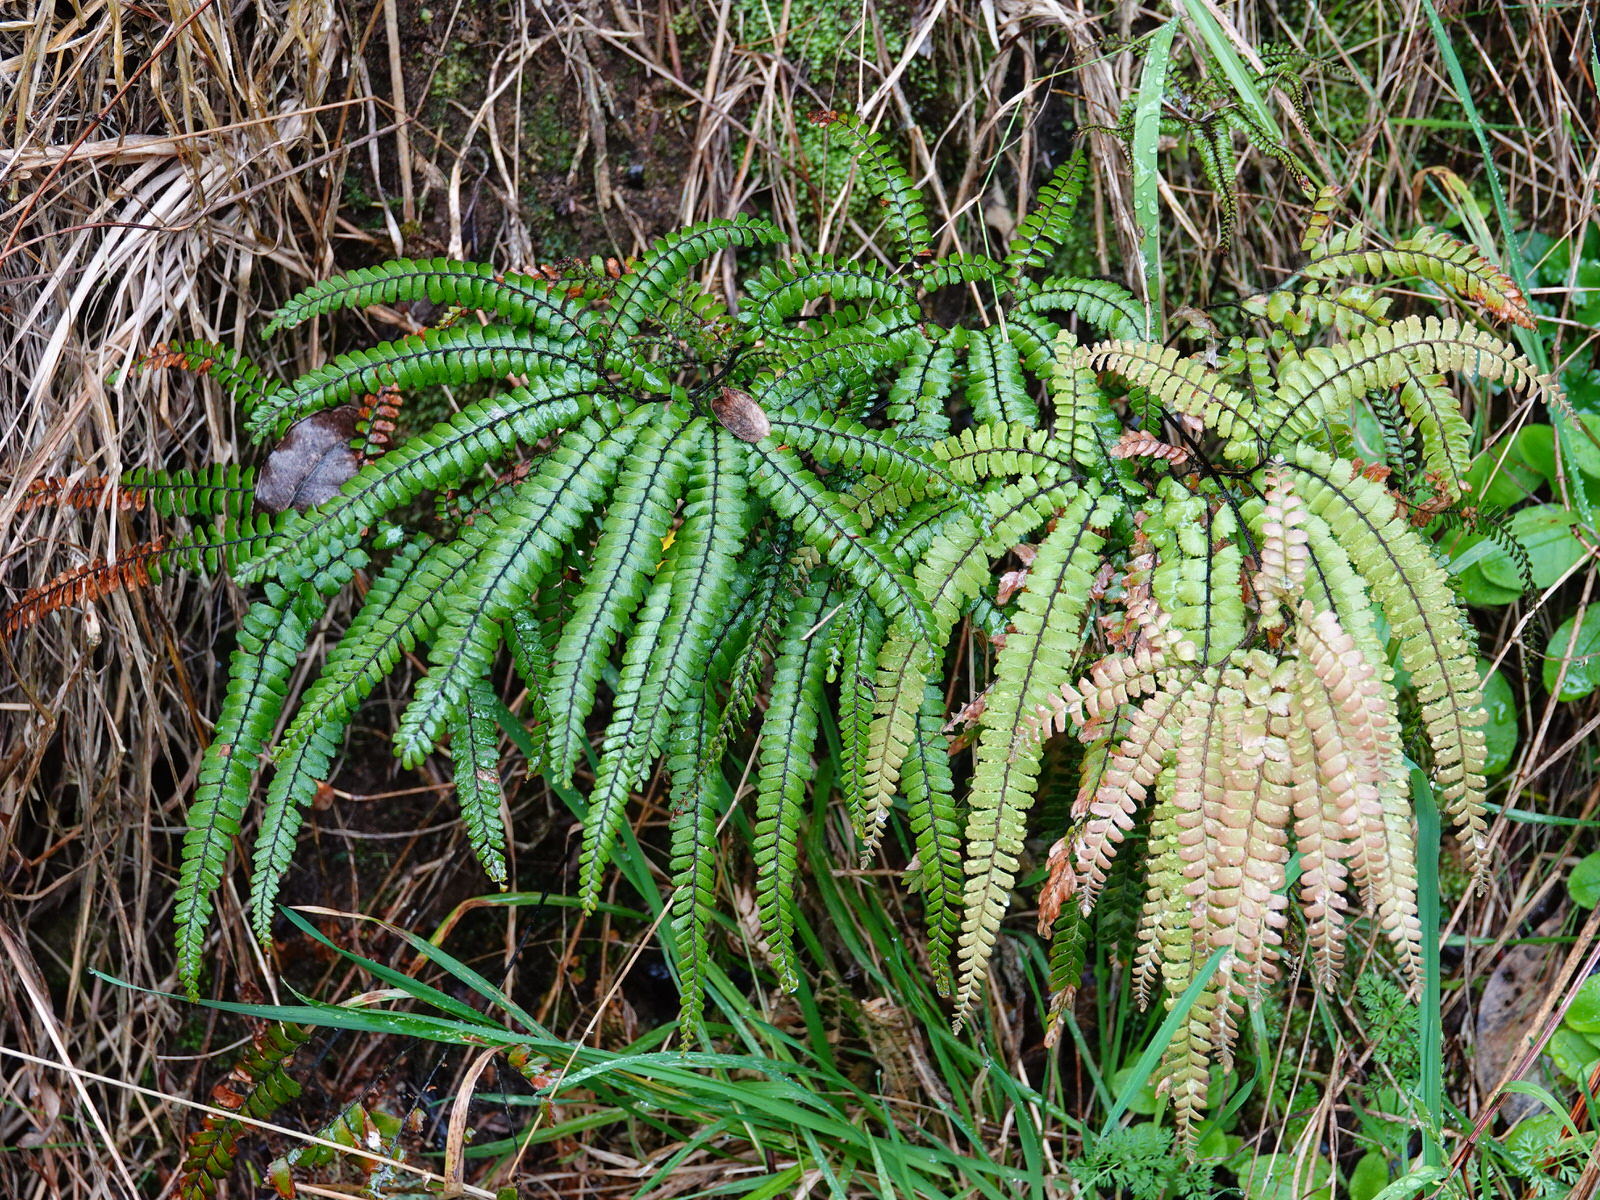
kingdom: Plantae
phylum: Tracheophyta
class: Polypodiopsida
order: Polypodiales
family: Pteridaceae
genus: Adiantum
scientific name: Adiantum hispidulum
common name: Rough maidenhair
